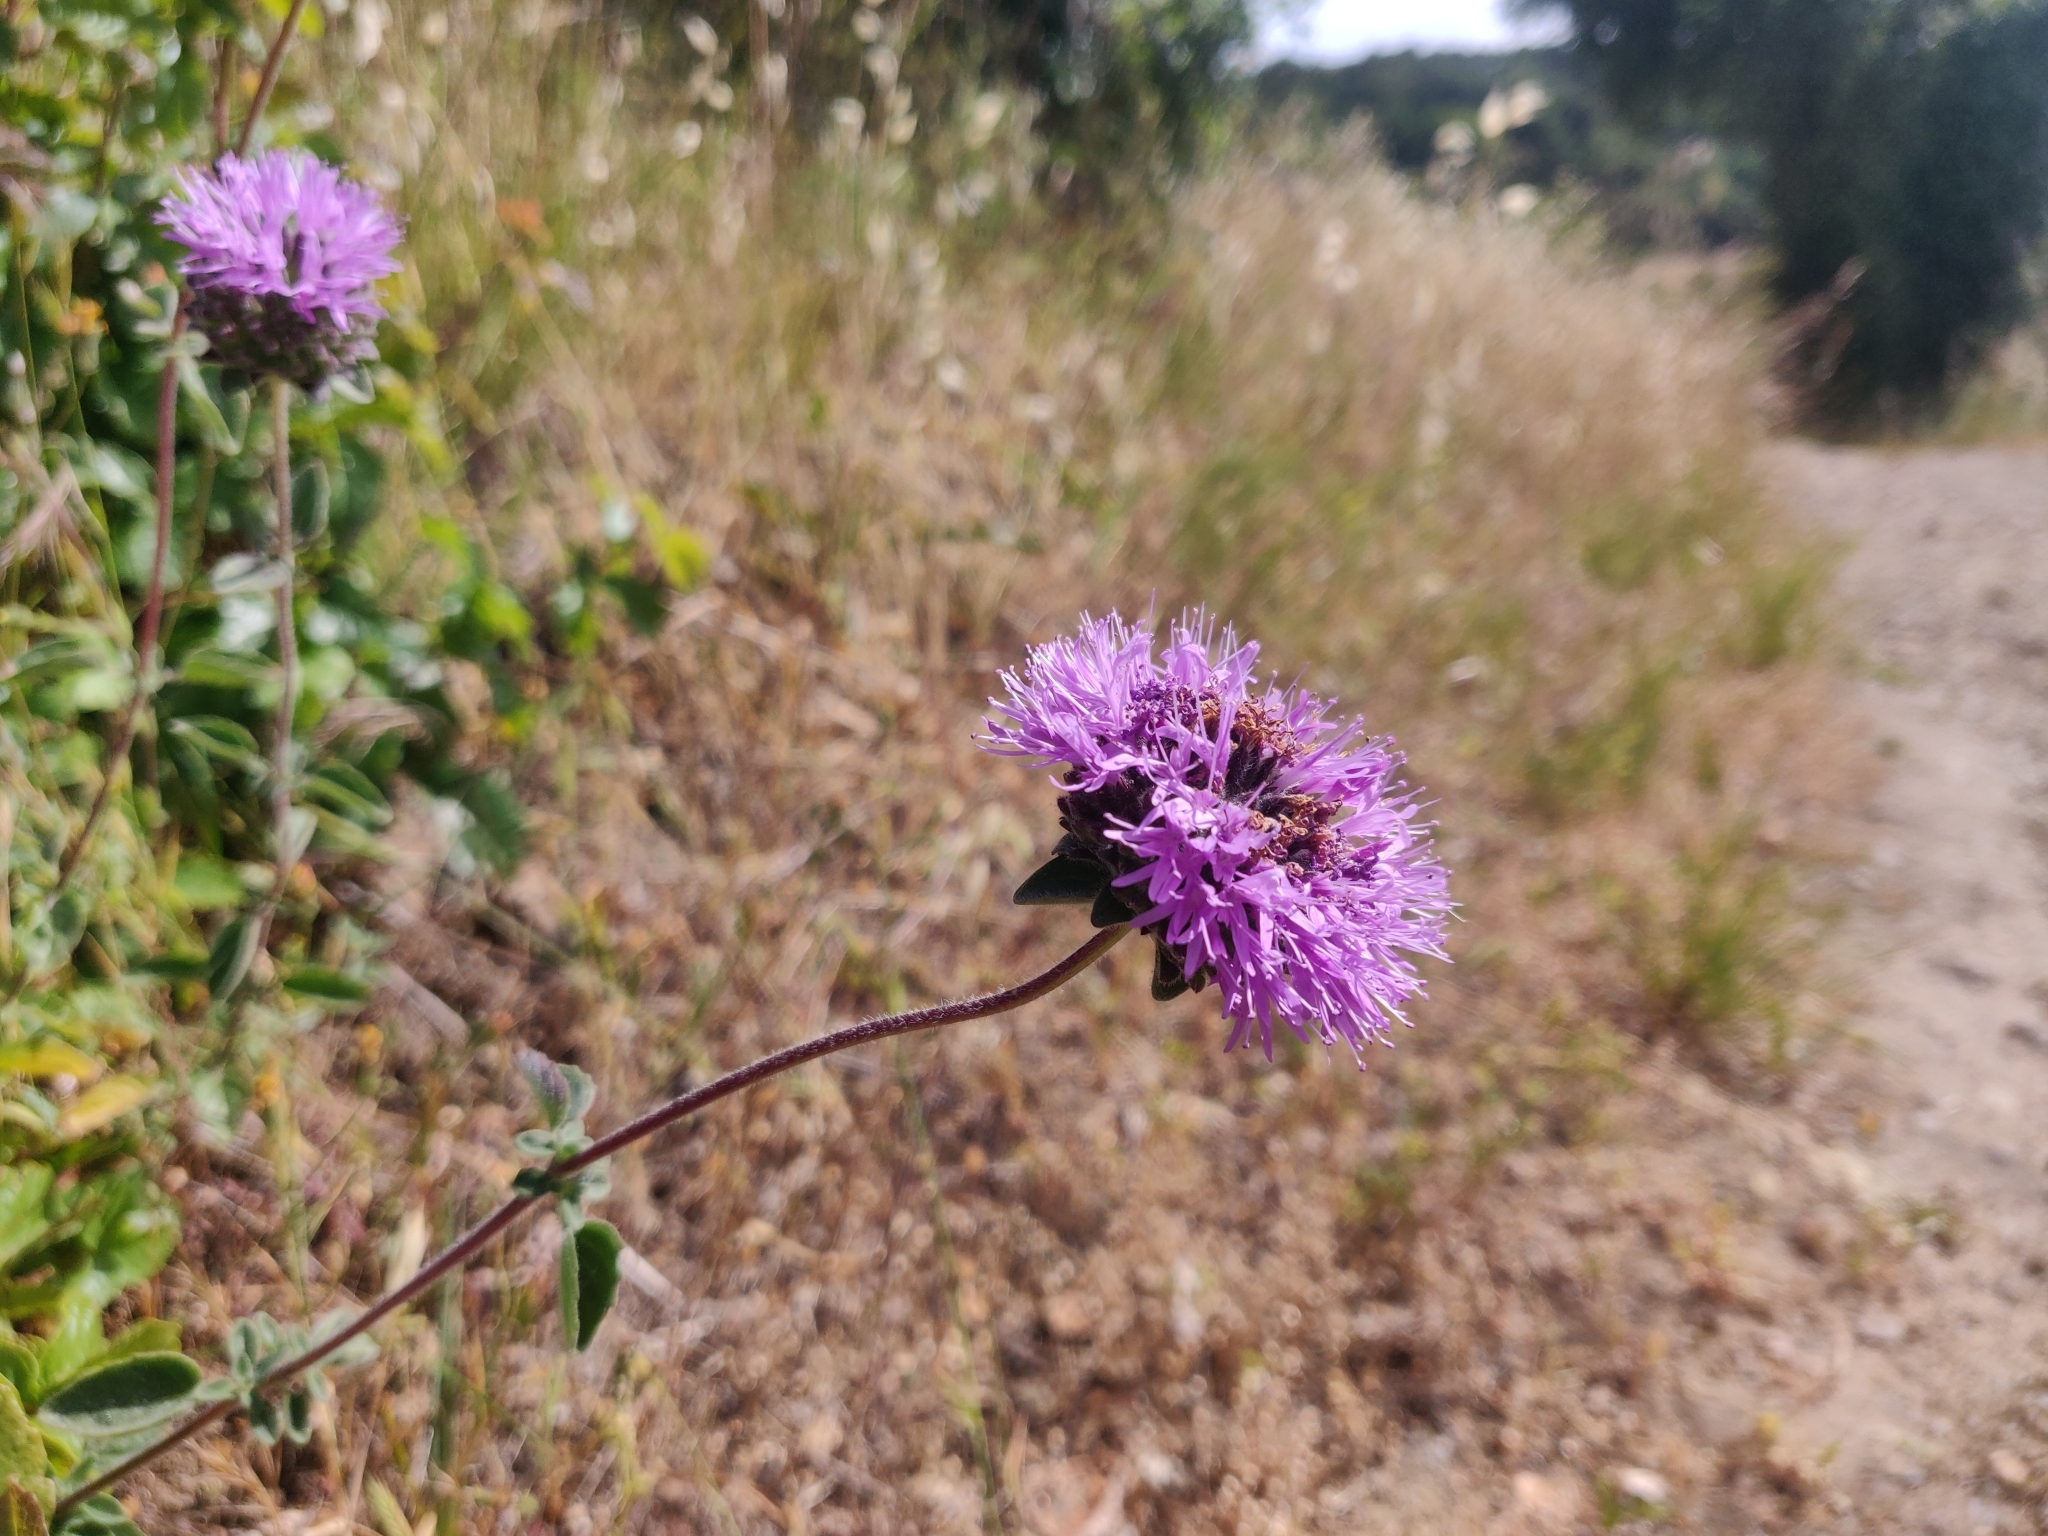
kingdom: Plantae
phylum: Tracheophyta
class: Magnoliopsida
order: Lamiales
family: Lamiaceae
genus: Monardella
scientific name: Monardella odoratissima
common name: Pacific monardella
